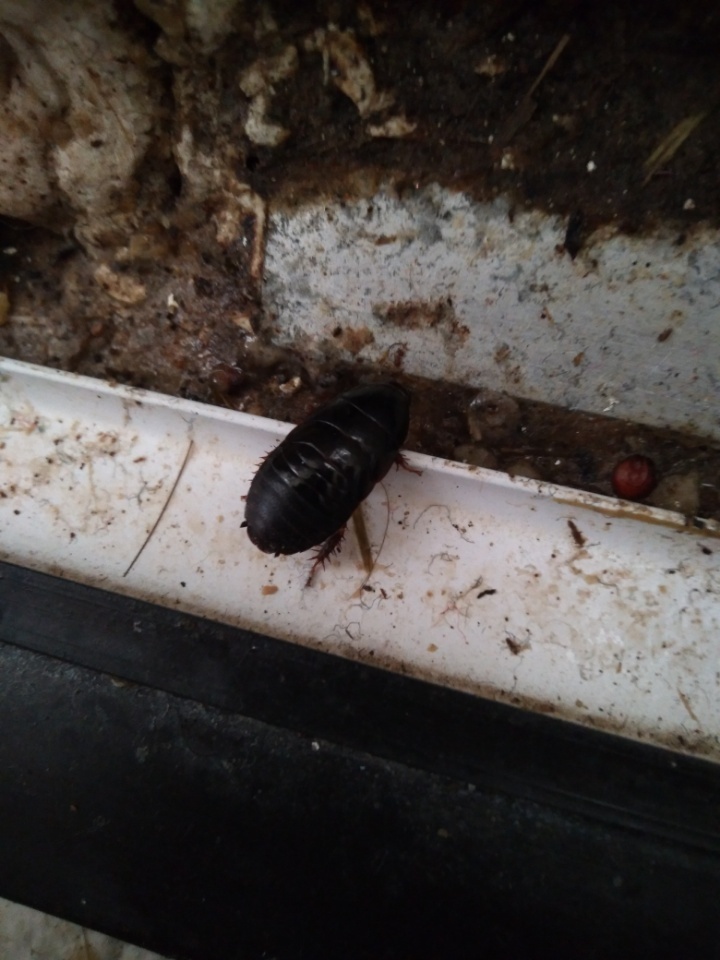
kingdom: Animalia
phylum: Arthropoda
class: Insecta
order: Blattodea
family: Blaberidae
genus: Pycnoscelus
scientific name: Pycnoscelus surinamensis
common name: Surinam cockroach
